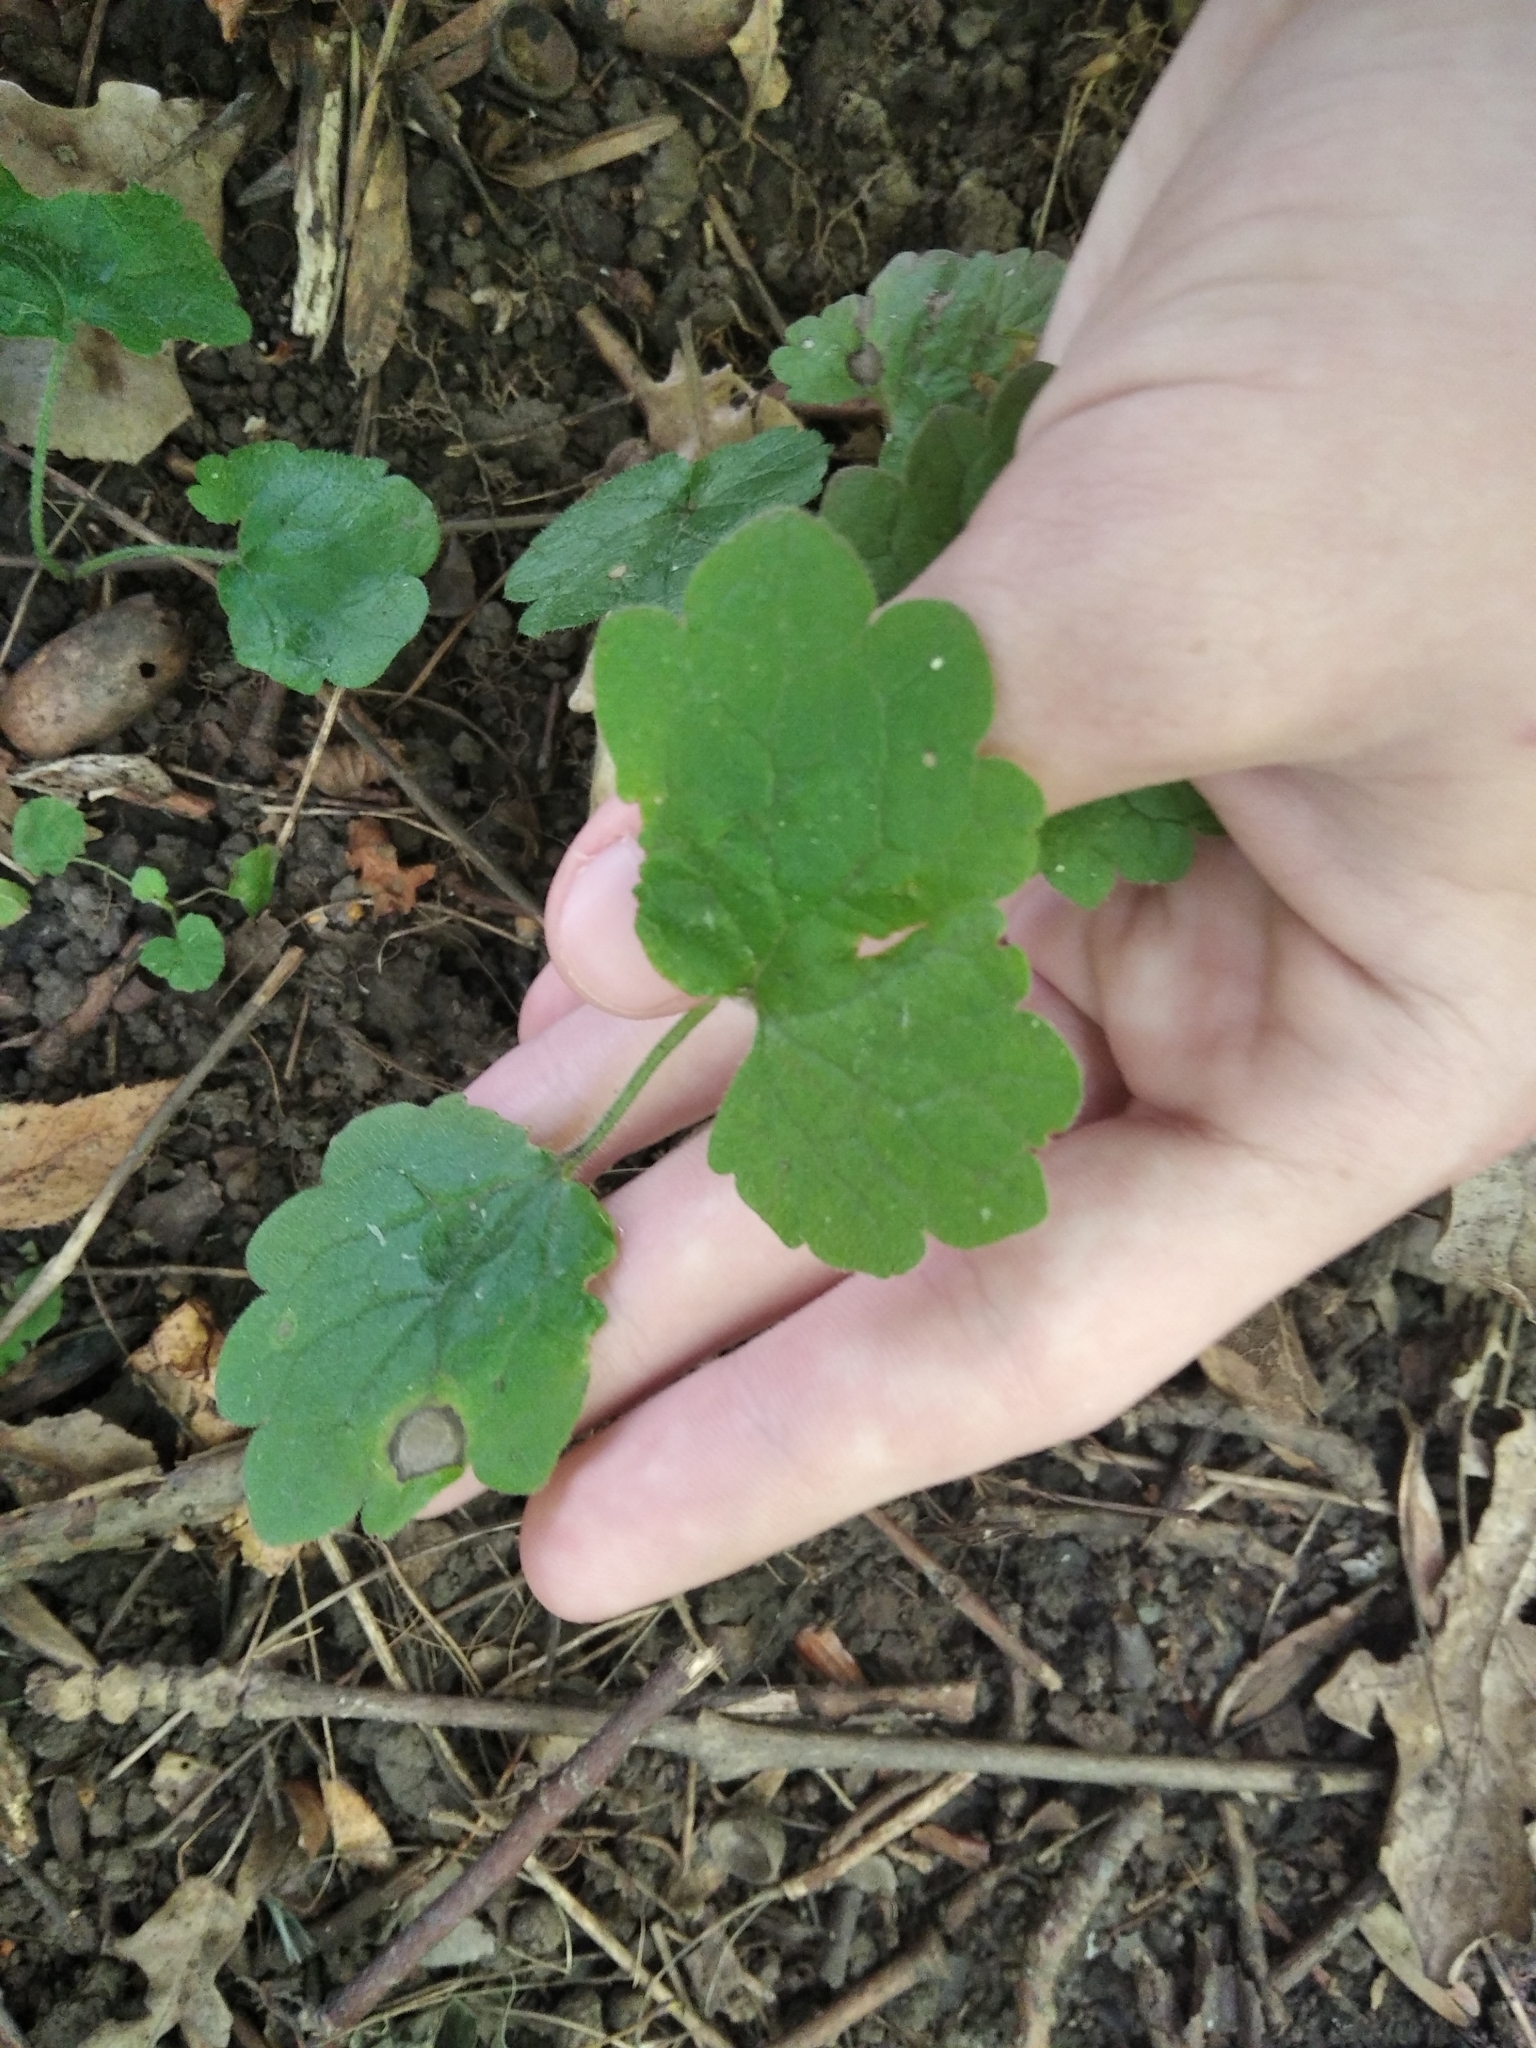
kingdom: Plantae
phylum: Tracheophyta
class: Magnoliopsida
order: Ranunculales
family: Papaveraceae
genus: Chelidonium
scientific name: Chelidonium majus
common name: Greater celandine
